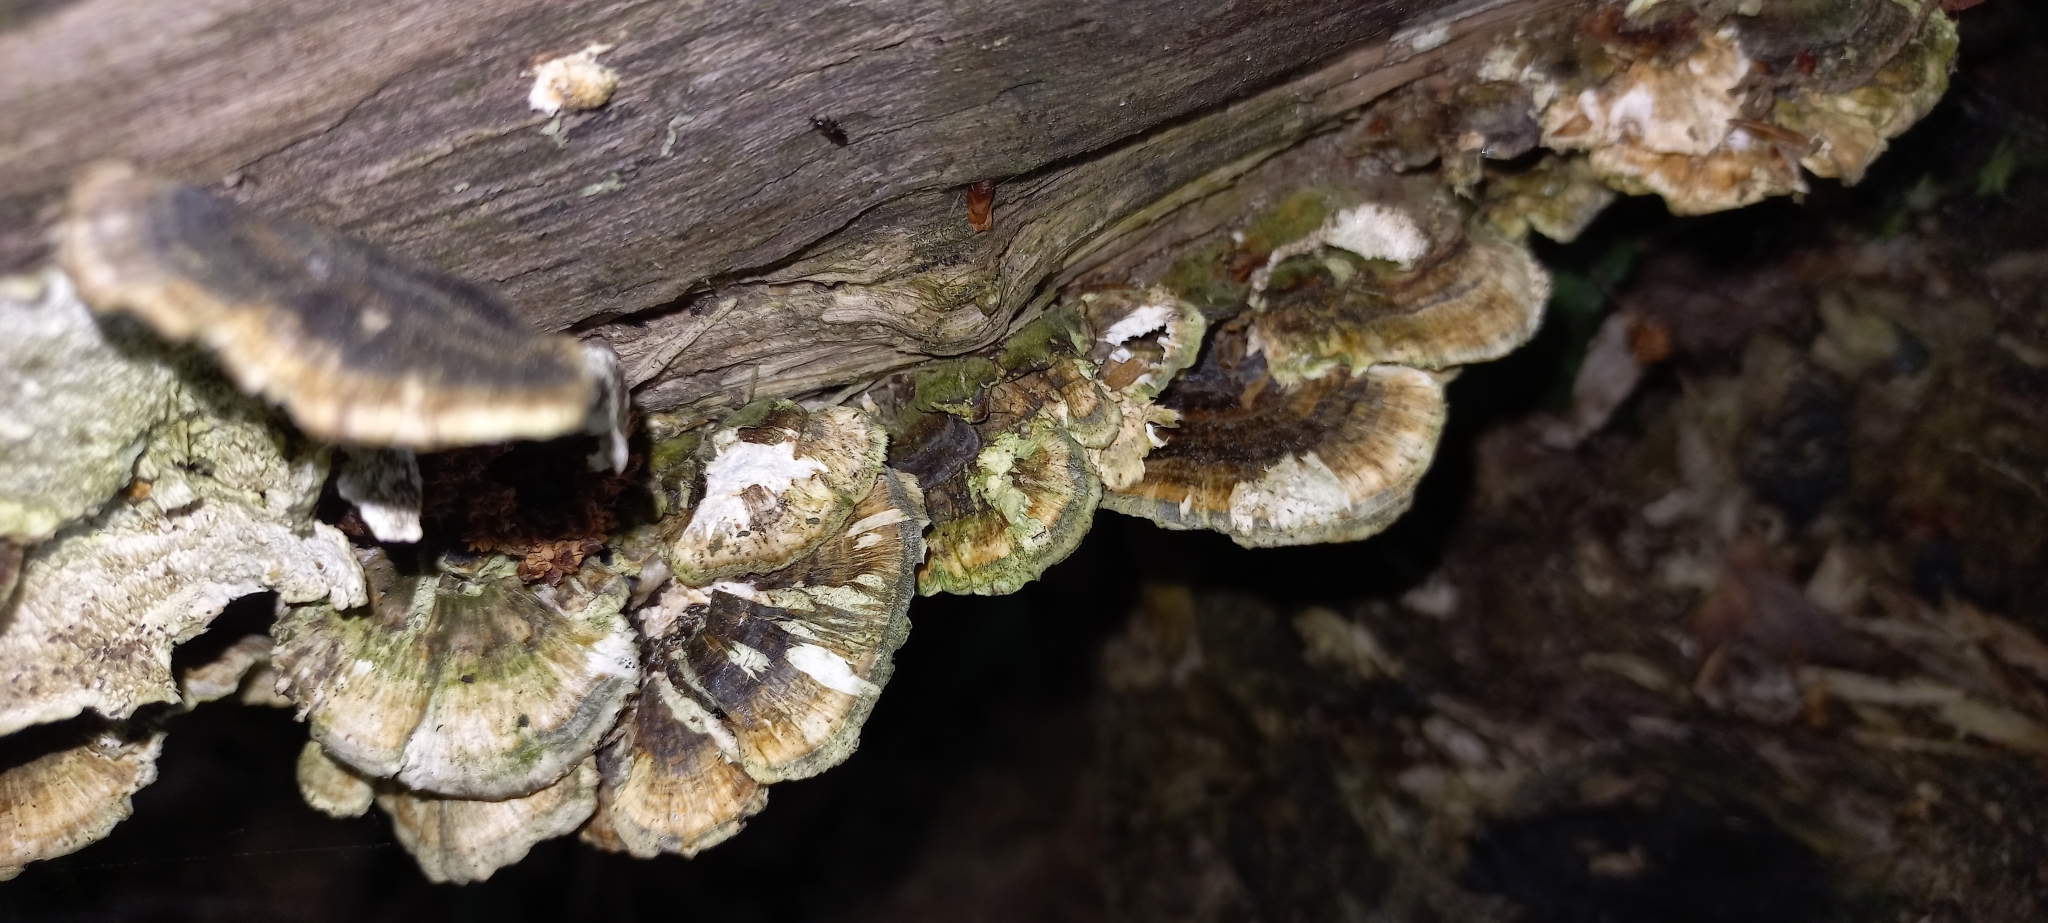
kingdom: Fungi
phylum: Basidiomycota
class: Agaricomycetes
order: Polyporales
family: Polyporaceae
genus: Trametes
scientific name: Trametes versicolor
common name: Turkeytail
